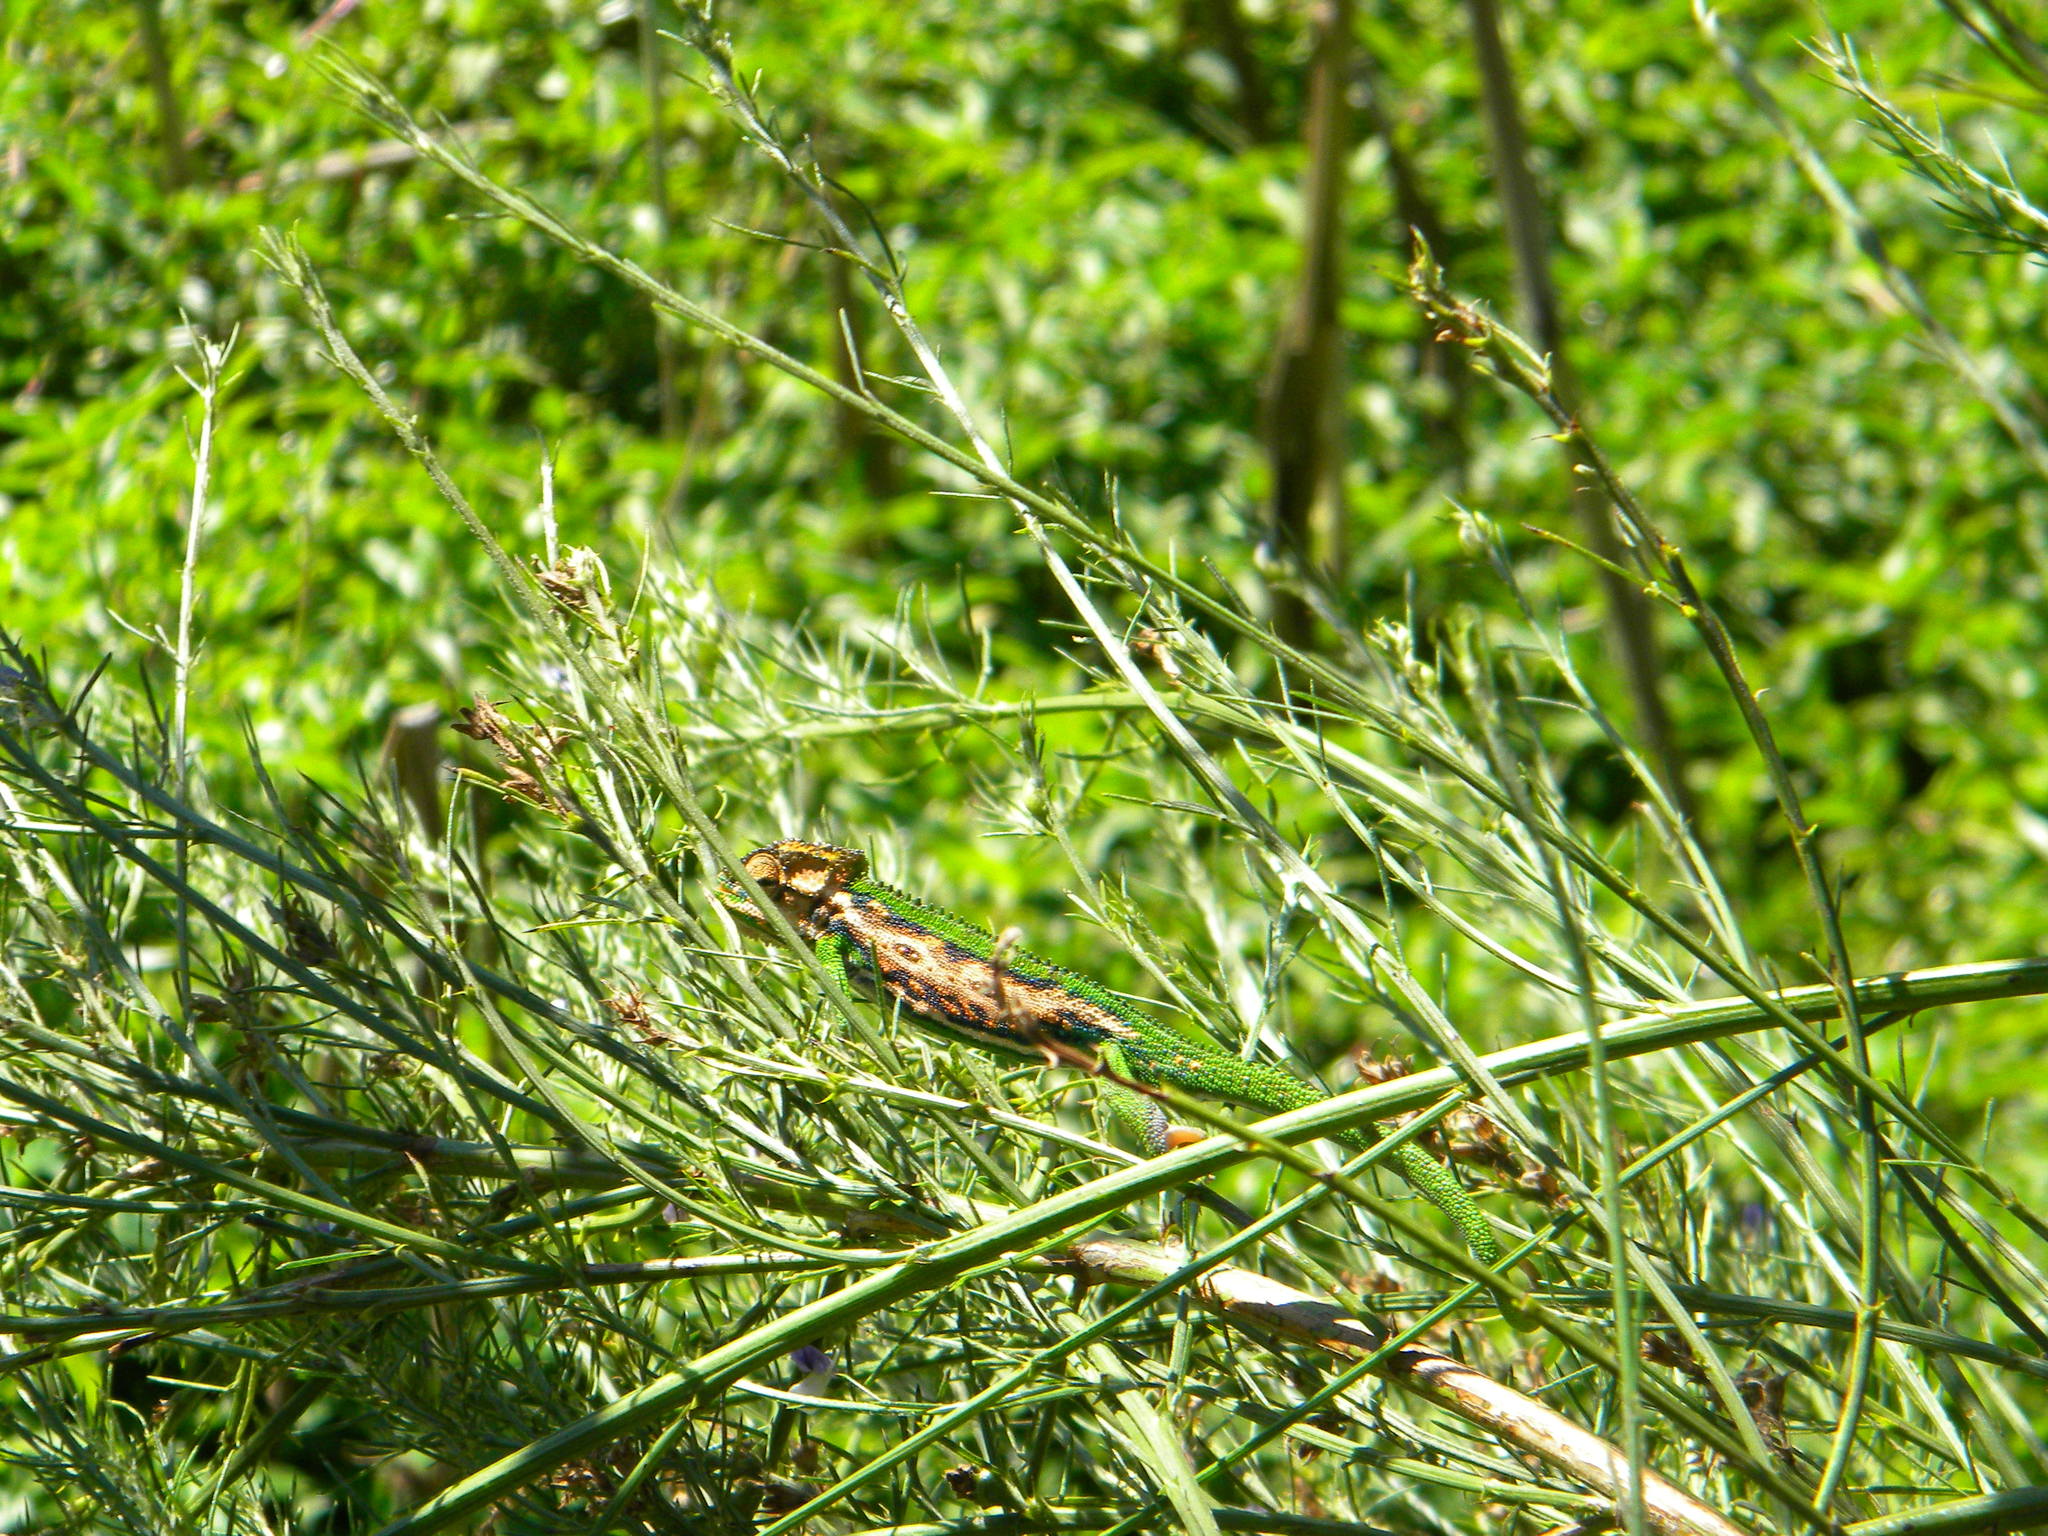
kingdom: Animalia
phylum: Chordata
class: Squamata
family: Chamaeleonidae
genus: Bradypodion
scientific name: Bradypodion pumilum
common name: Cape dwarf chameleon
